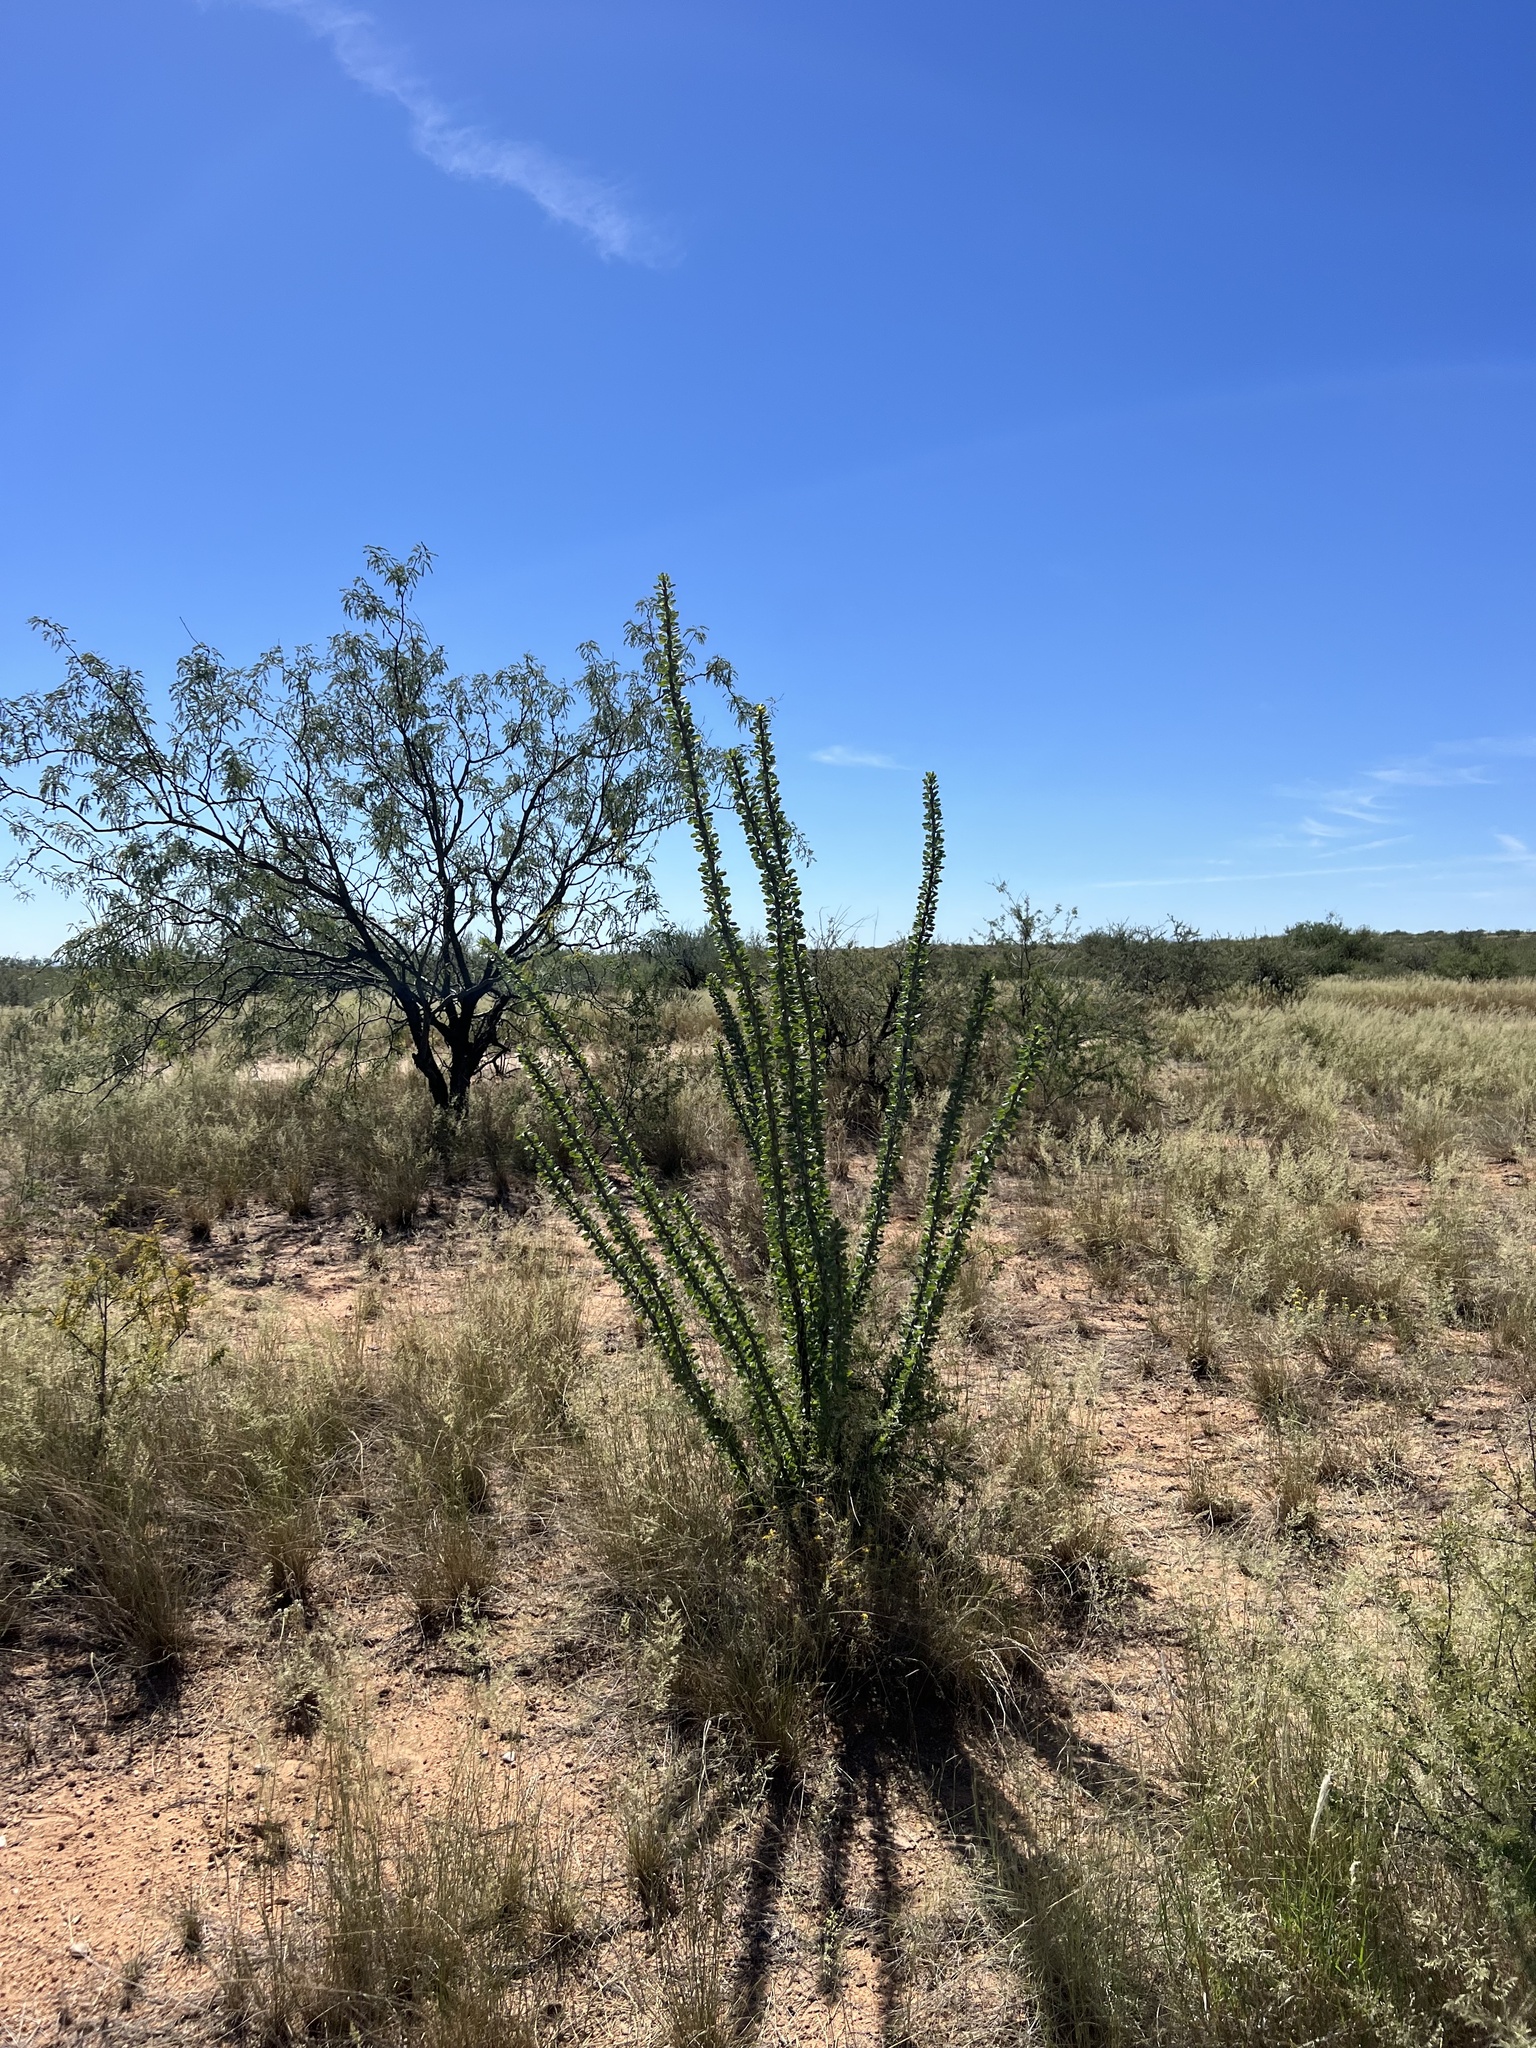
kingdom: Plantae
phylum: Tracheophyta
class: Magnoliopsida
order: Ericales
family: Fouquieriaceae
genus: Fouquieria
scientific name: Fouquieria splendens
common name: Vine-cactus
